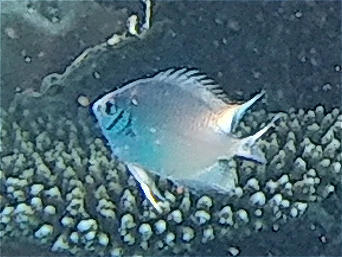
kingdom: Animalia
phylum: Chordata
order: Perciformes
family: Pomacentridae
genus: Amblyglyphidodon
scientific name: Amblyglyphidodon indicus
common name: Maldives damselfish
